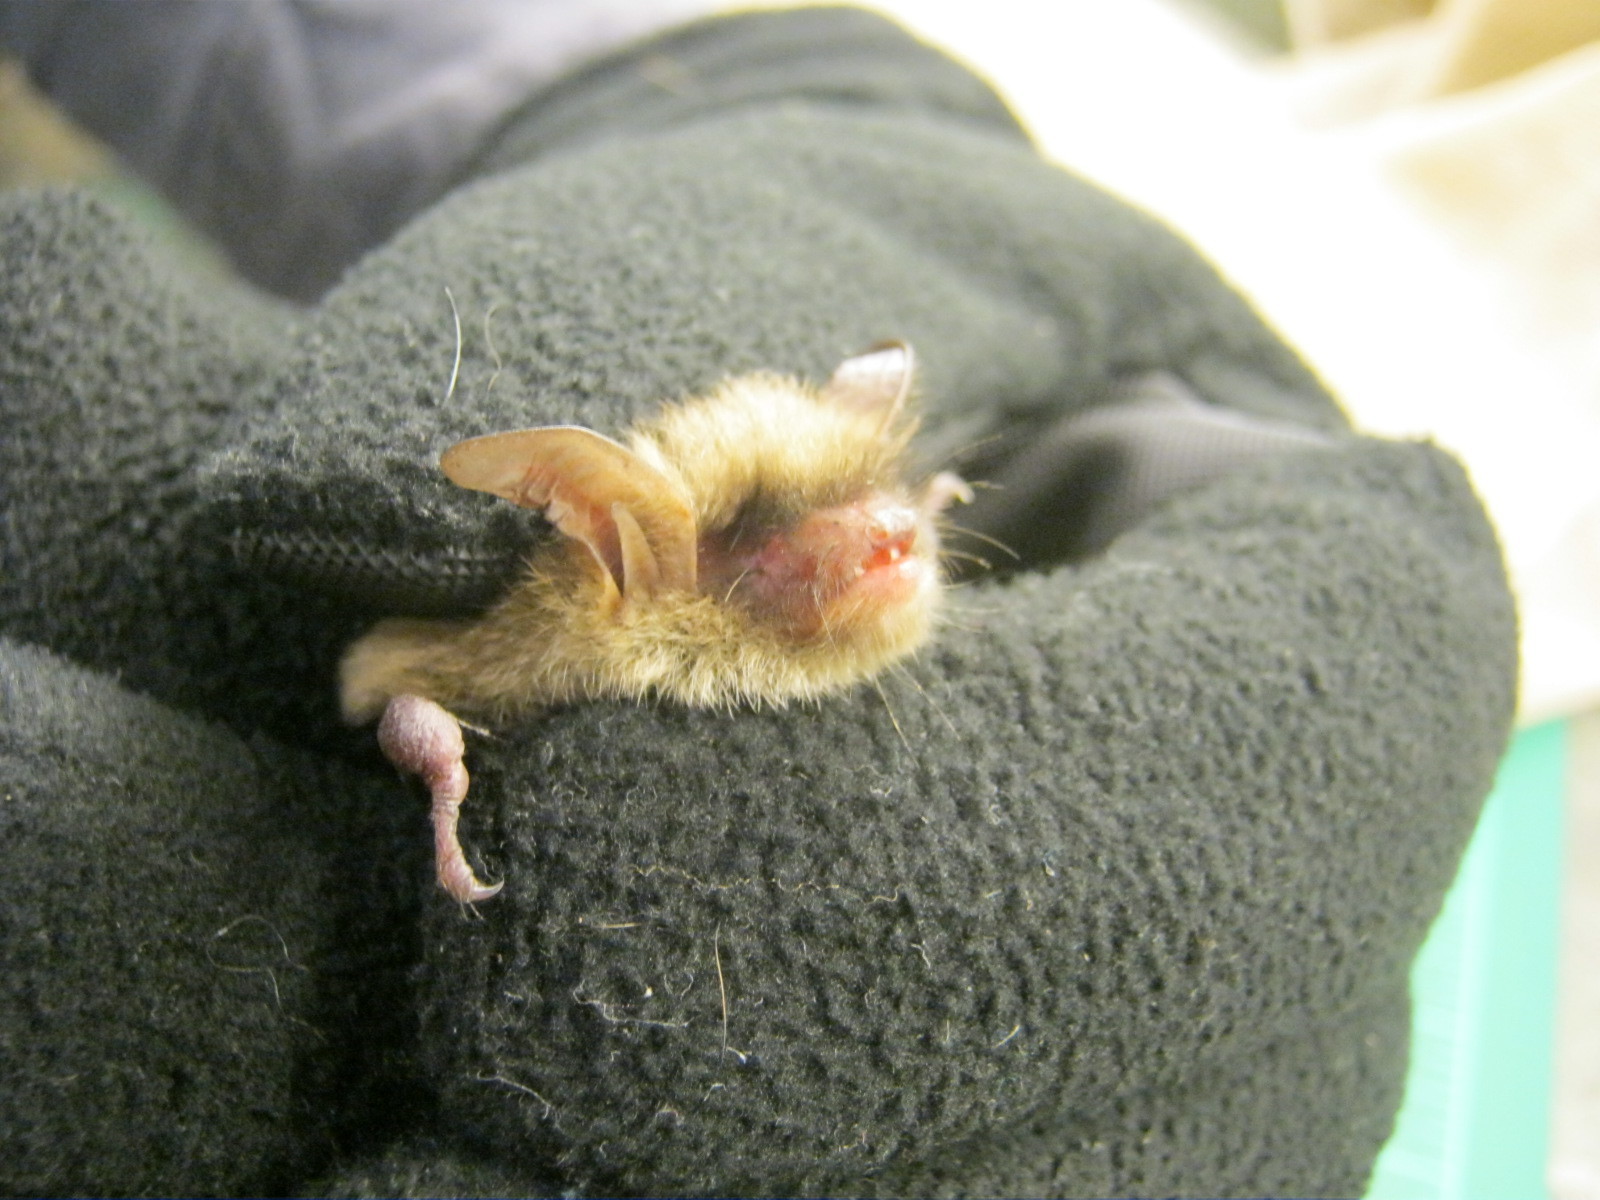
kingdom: Animalia
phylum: Chordata
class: Mammalia
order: Chiroptera
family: Vespertilionidae
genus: Myotis
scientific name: Myotis septentrionalis
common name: Northern myotis
